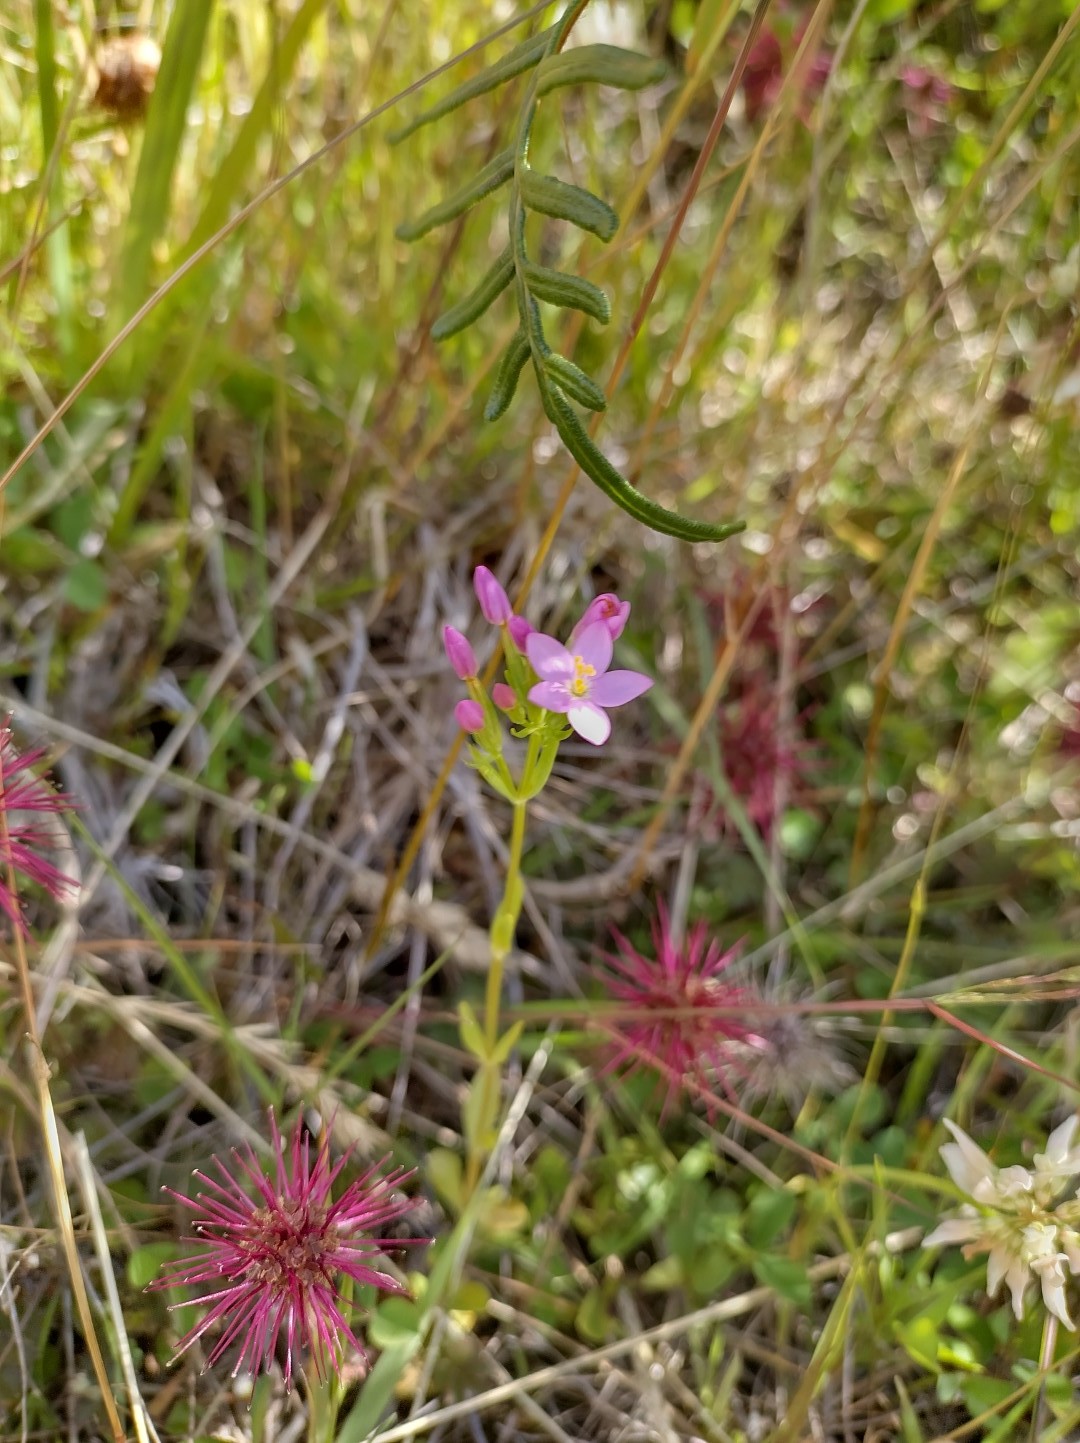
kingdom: Plantae
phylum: Tracheophyta
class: Magnoliopsida
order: Gentianales
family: Gentianaceae
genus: Centaurium
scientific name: Centaurium erythraea
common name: Common centaury
